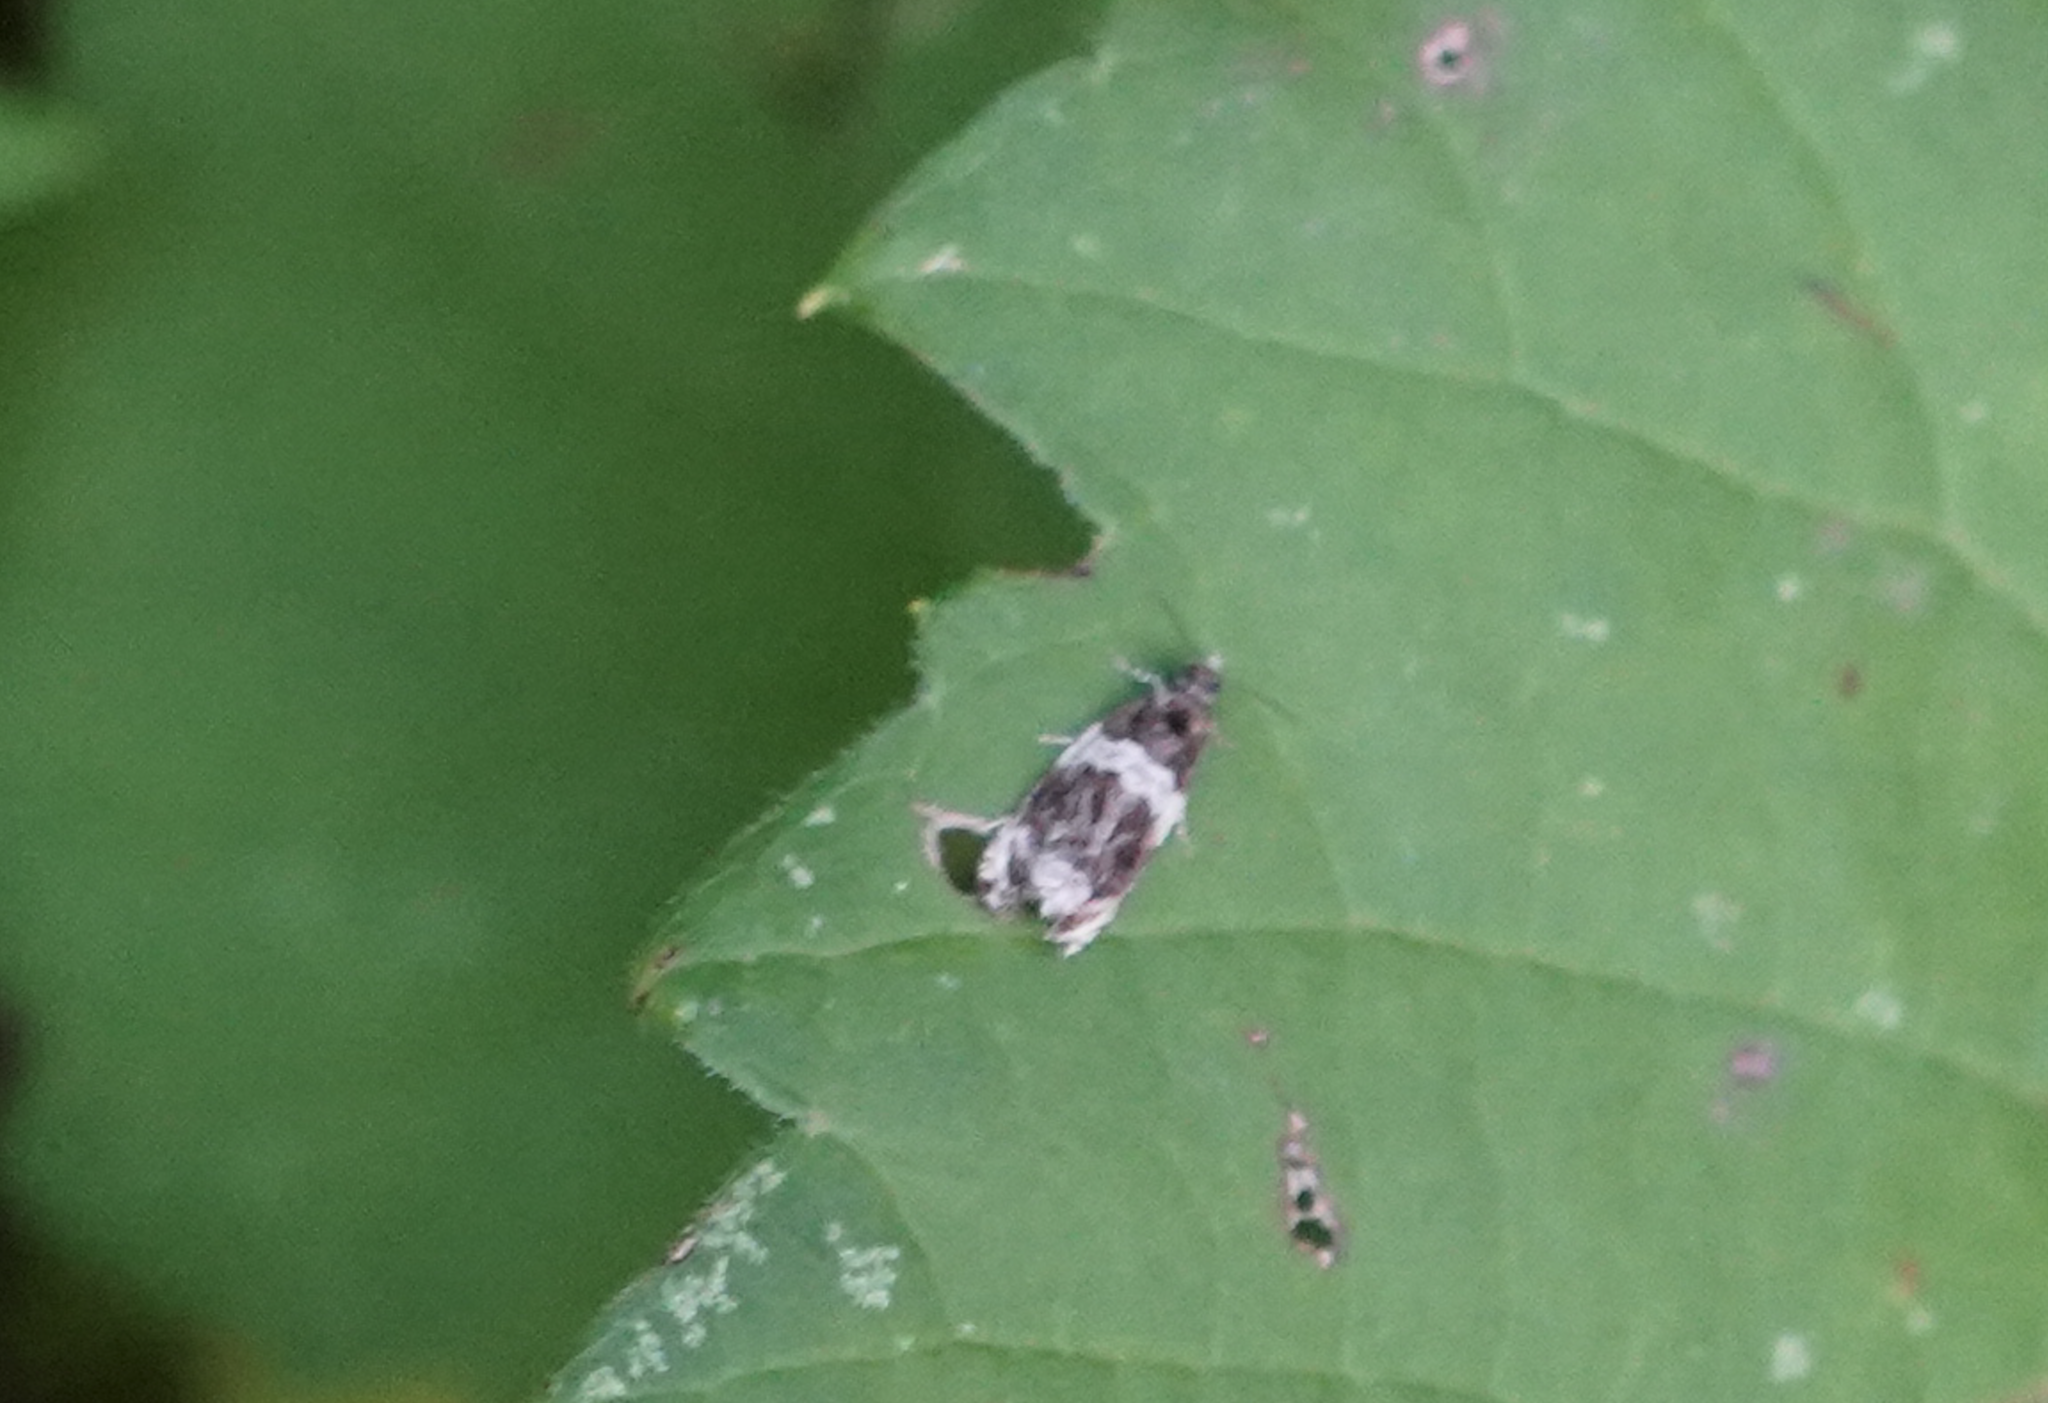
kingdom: Animalia
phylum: Arthropoda
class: Insecta
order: Lepidoptera
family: Tortricidae
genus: Olethreutes
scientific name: Olethreutes fasciatana
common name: Banded olethreutes moth
